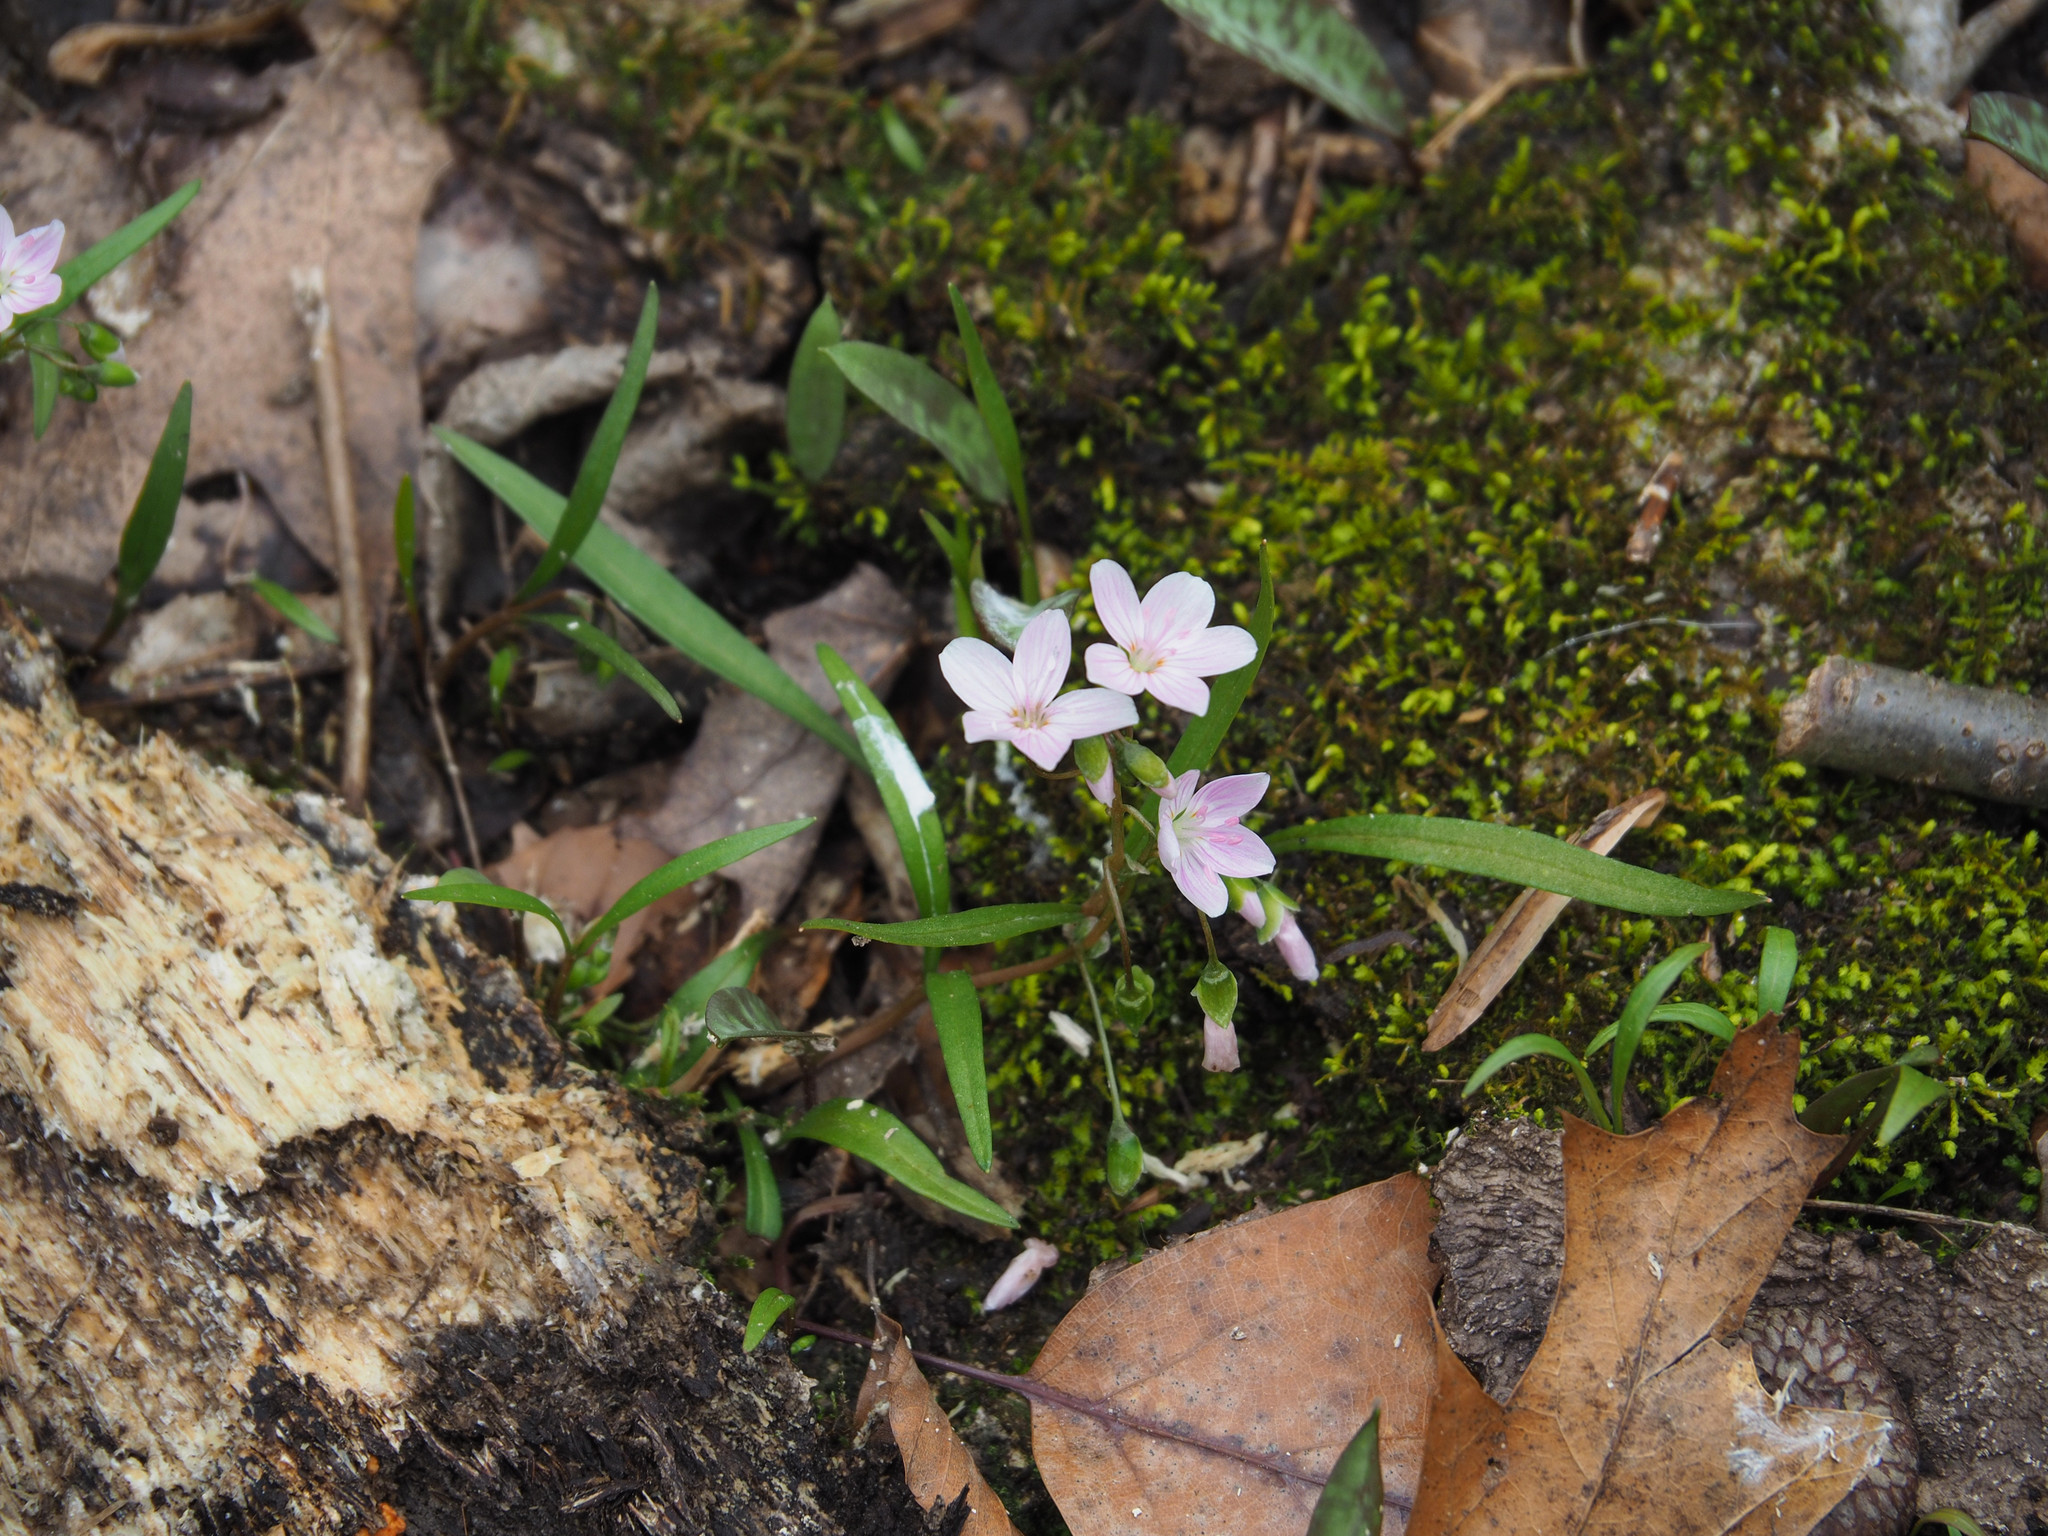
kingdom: Plantae
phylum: Tracheophyta
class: Magnoliopsida
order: Caryophyllales
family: Montiaceae
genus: Claytonia
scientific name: Claytonia virginica
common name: Virginia springbeauty
